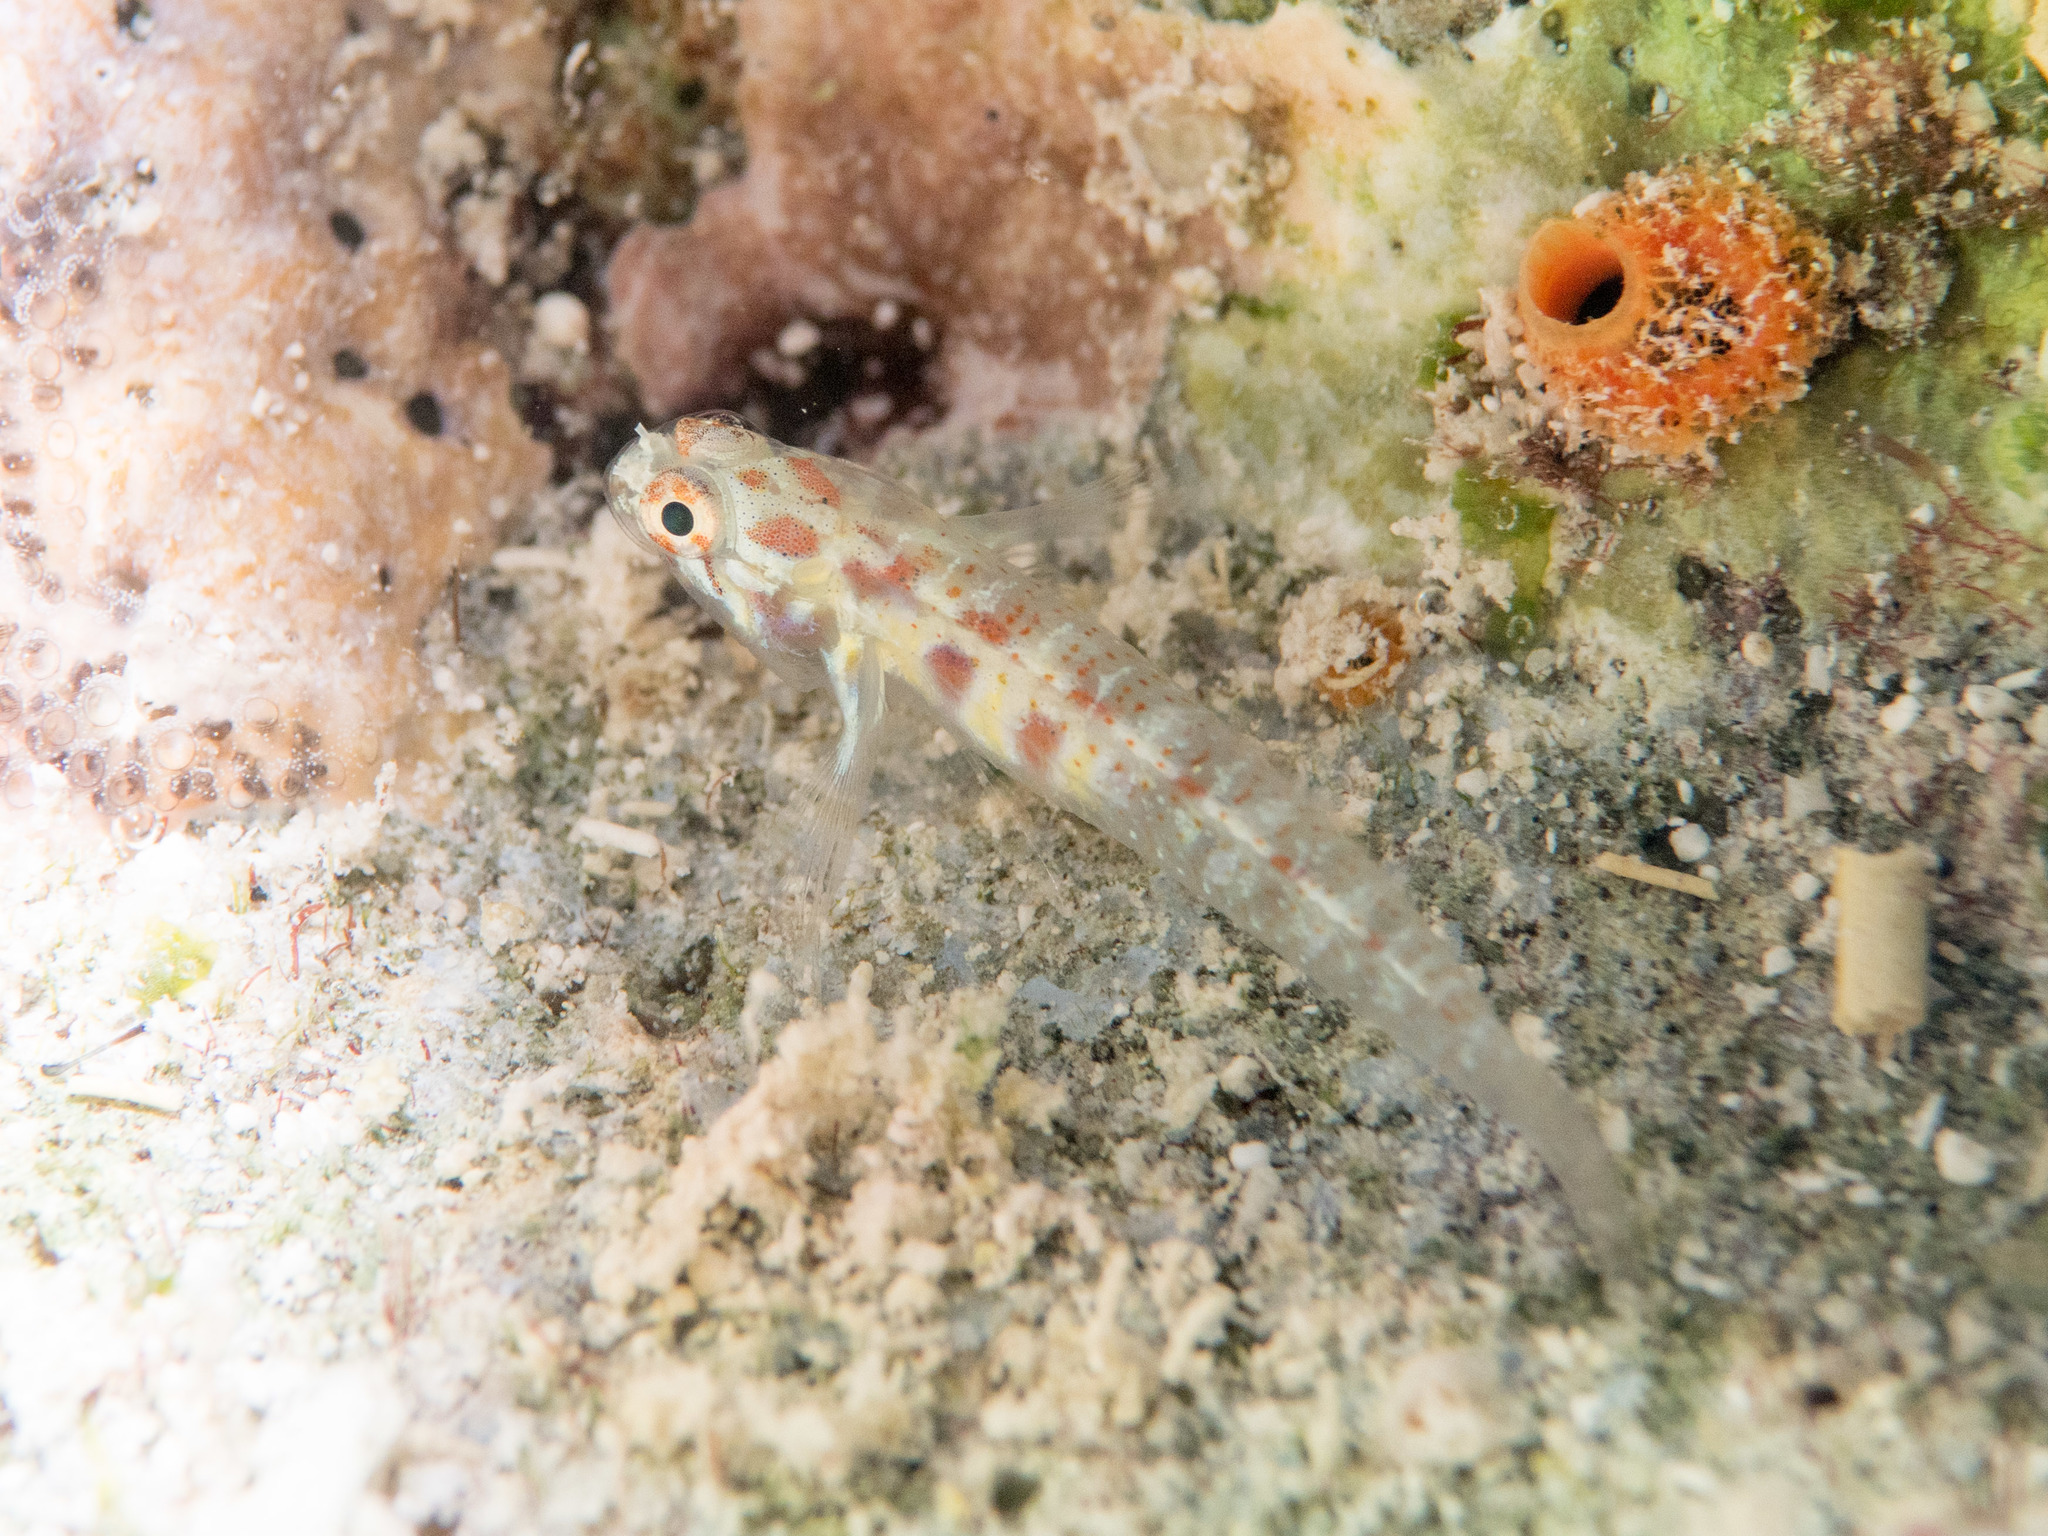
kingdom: Animalia
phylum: Chordata
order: Perciformes
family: Gobiidae
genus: Eviota
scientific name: Eviota teresae
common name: Terry's dwarfgoby
